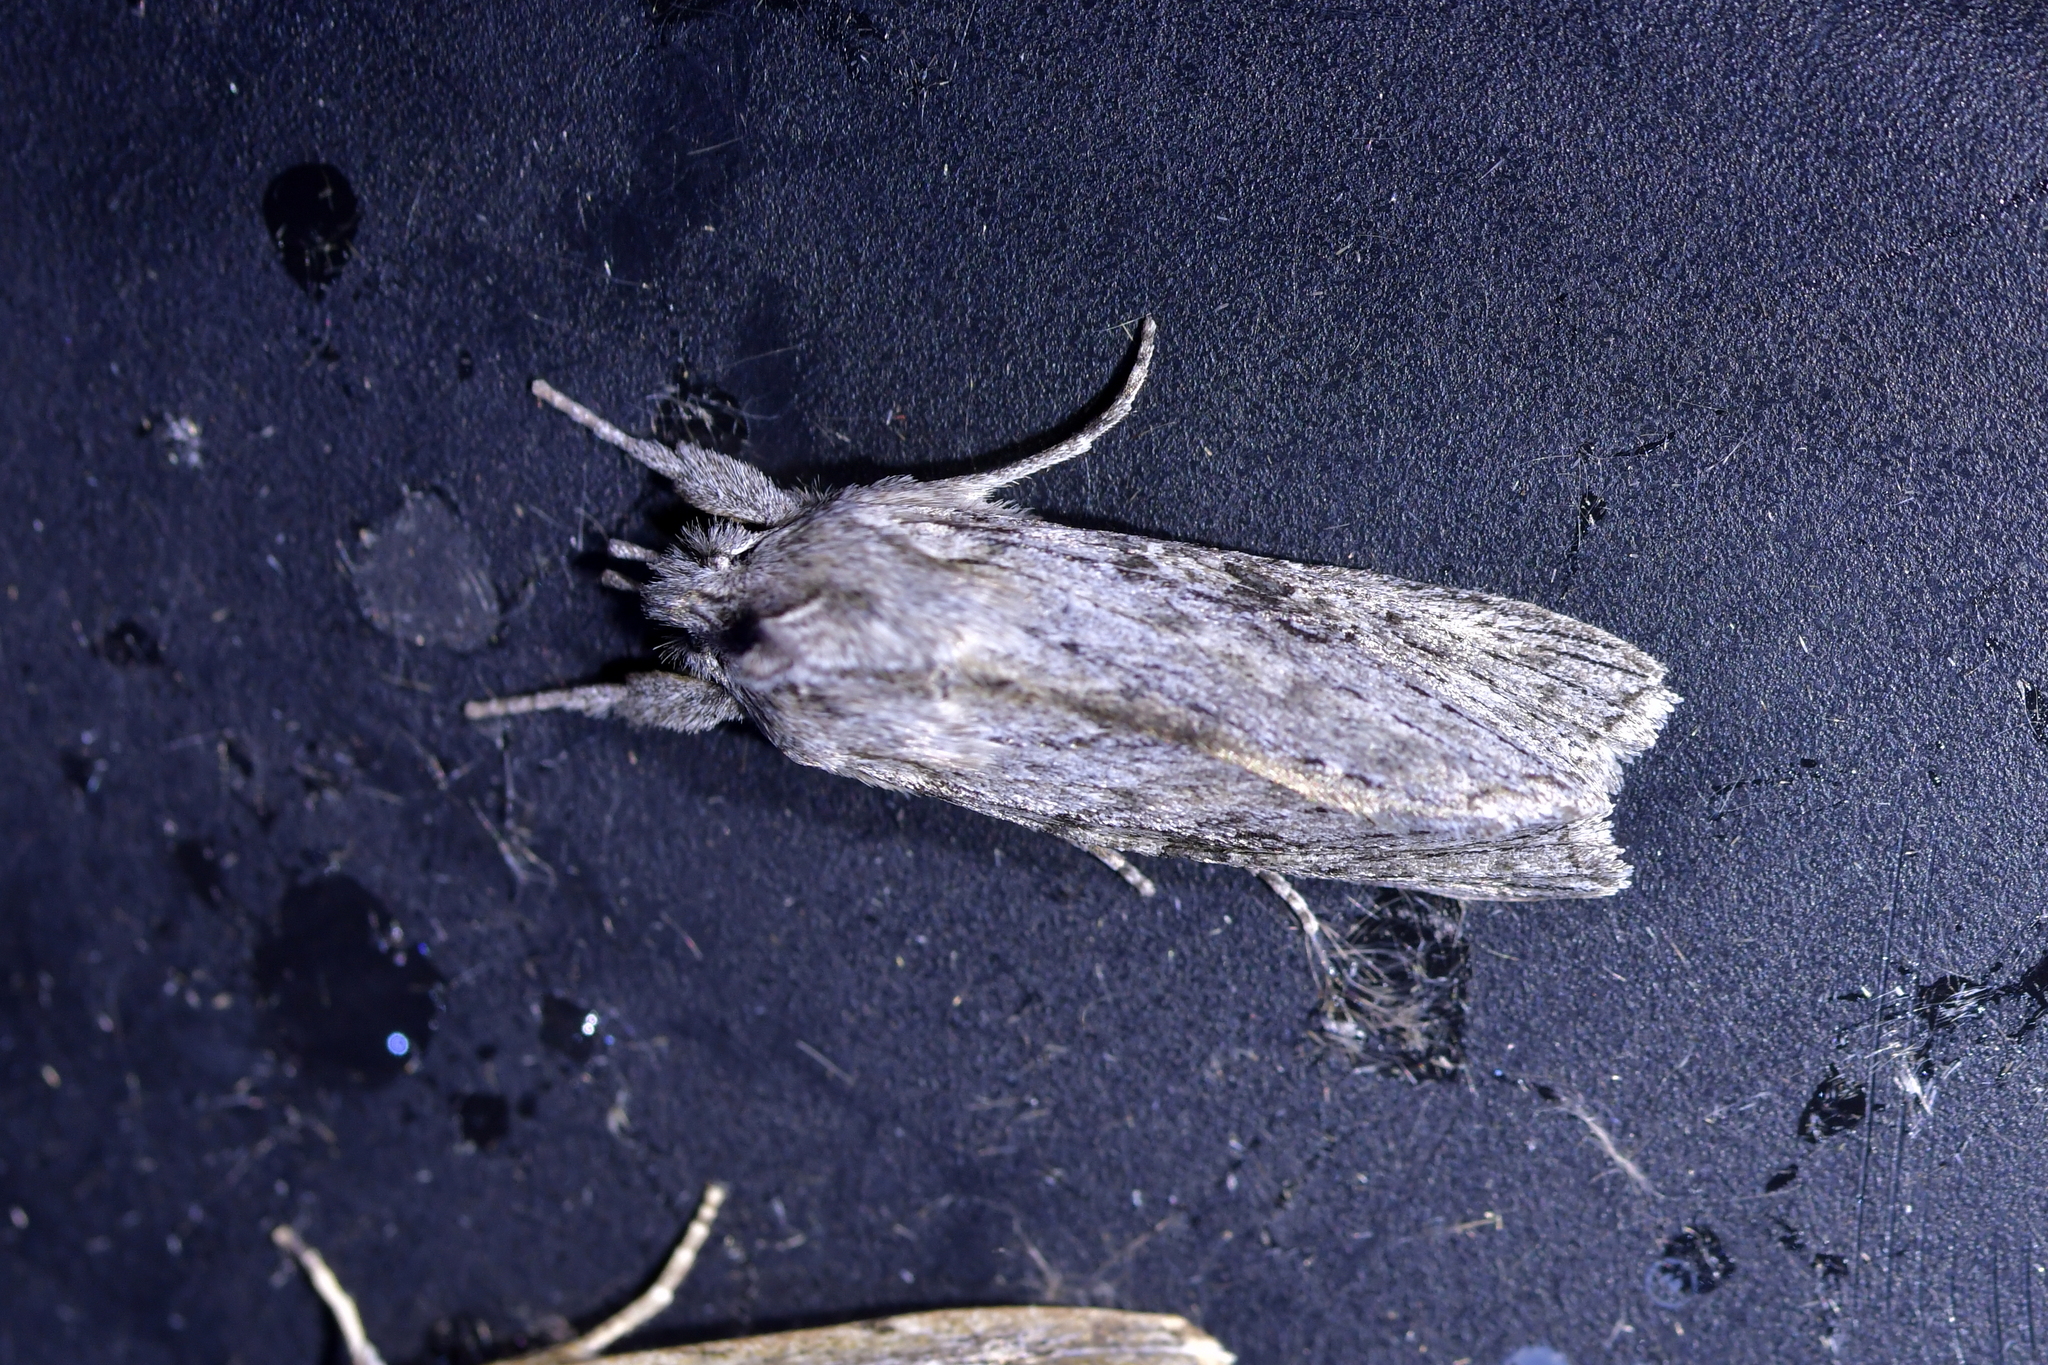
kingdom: Animalia
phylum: Arthropoda
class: Insecta
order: Lepidoptera
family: Noctuidae
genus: Physetica
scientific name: Physetica phricias
